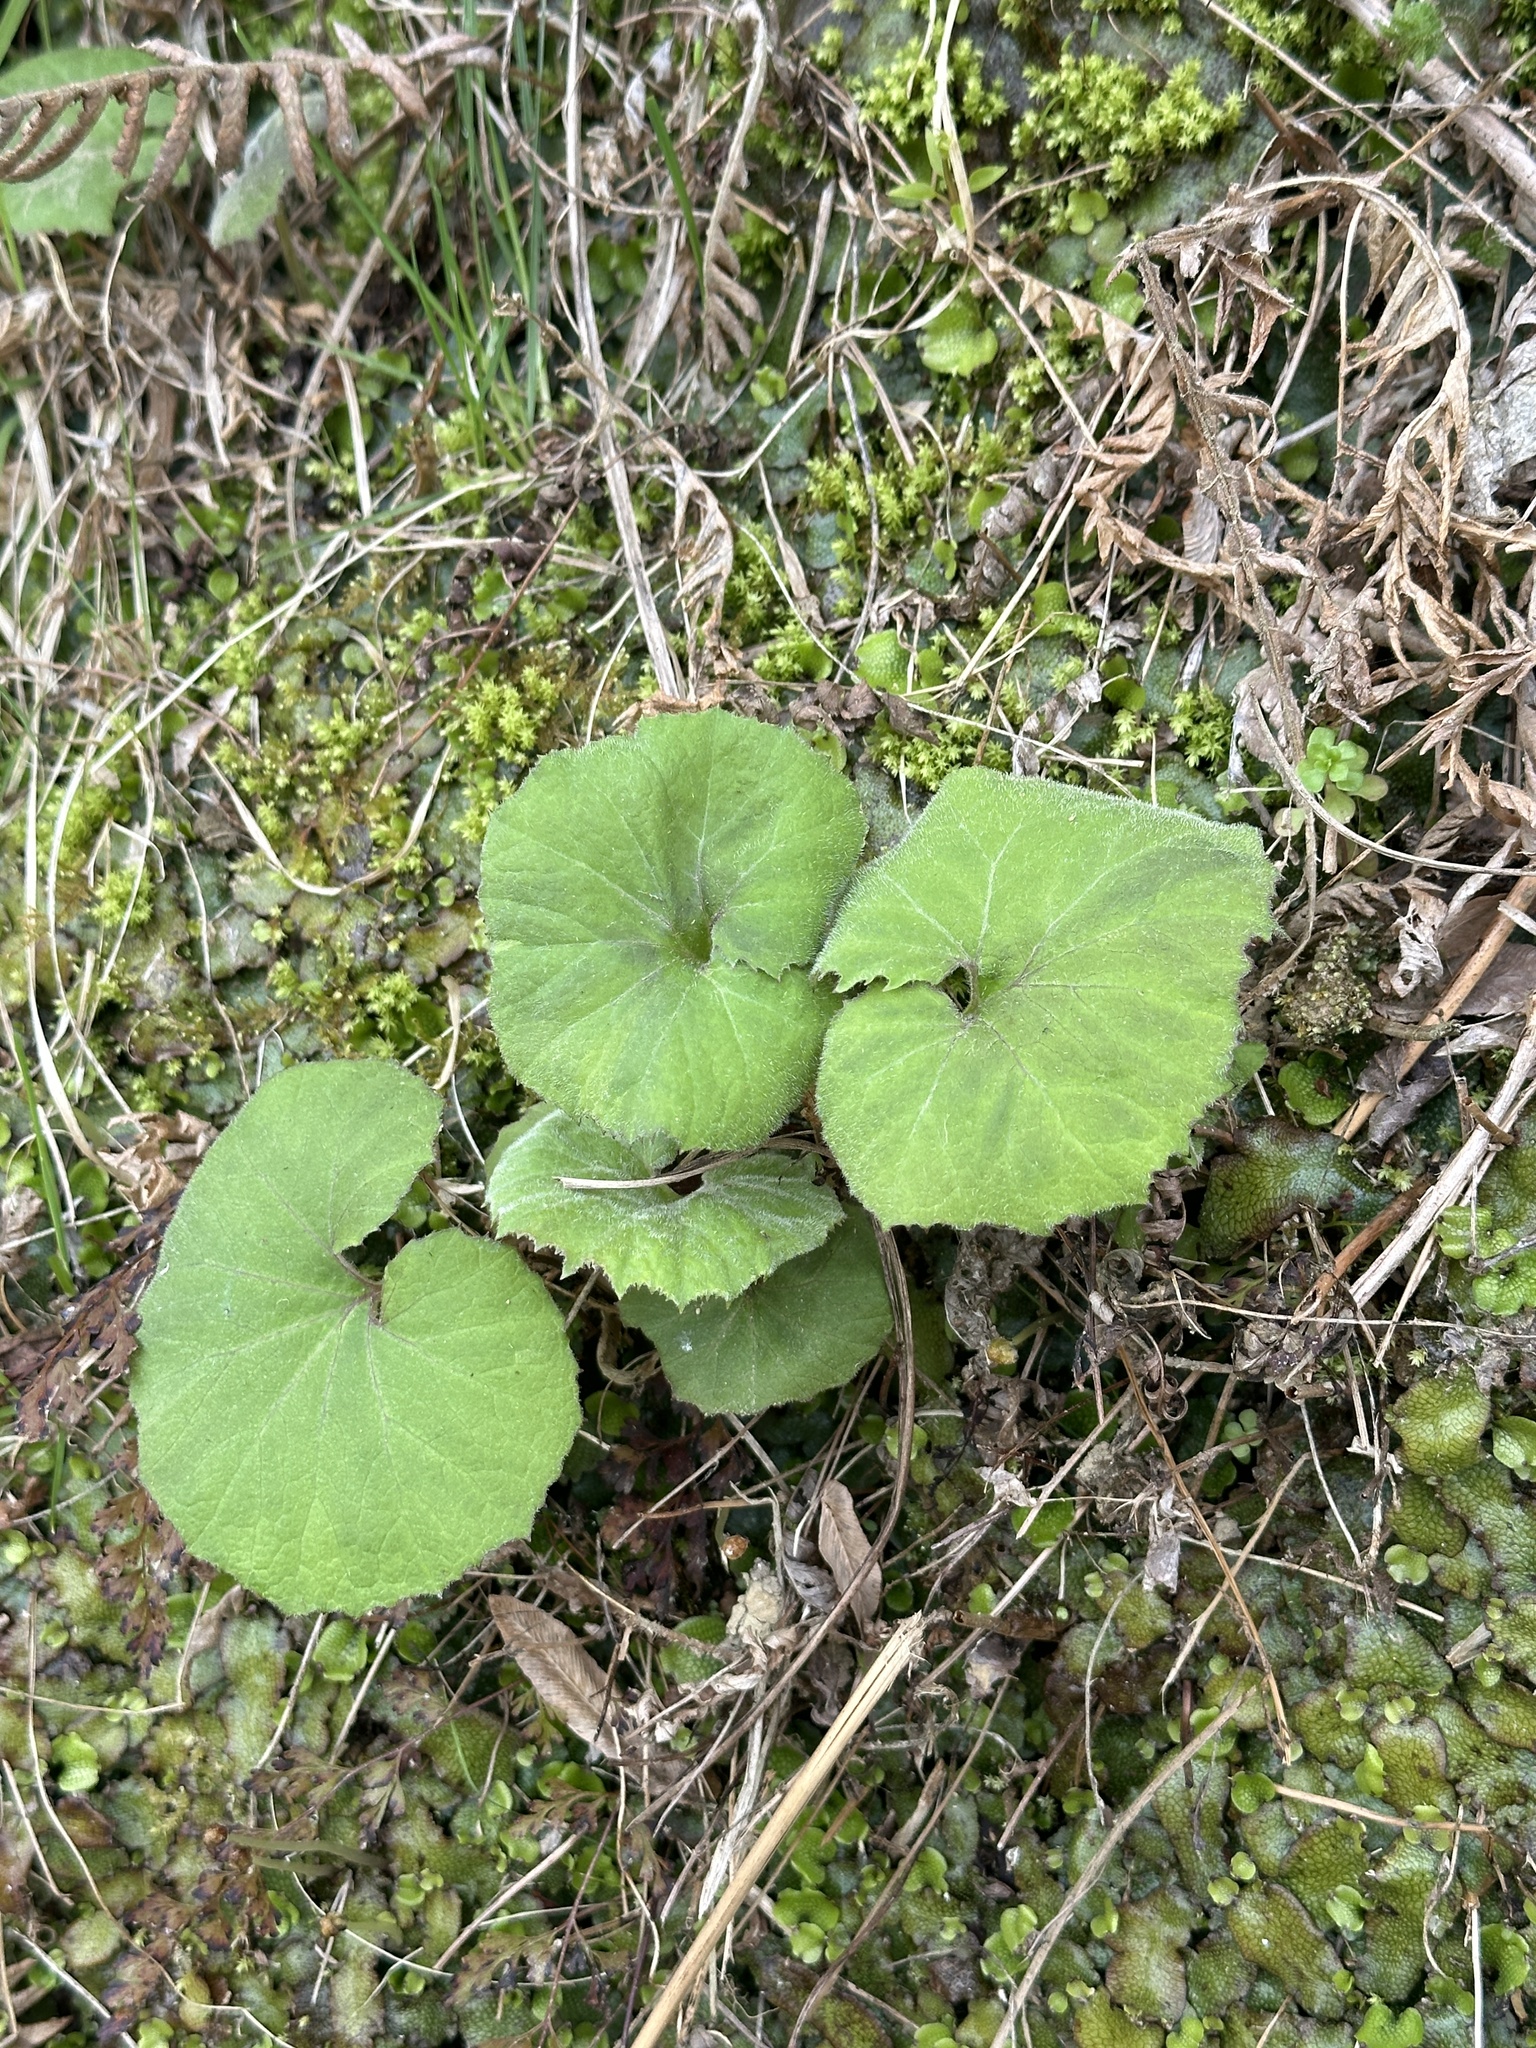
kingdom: Plantae
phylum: Tracheophyta
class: Magnoliopsida
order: Asterales
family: Asteraceae
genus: Petasites
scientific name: Petasites japonicus
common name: Giant butterbur
